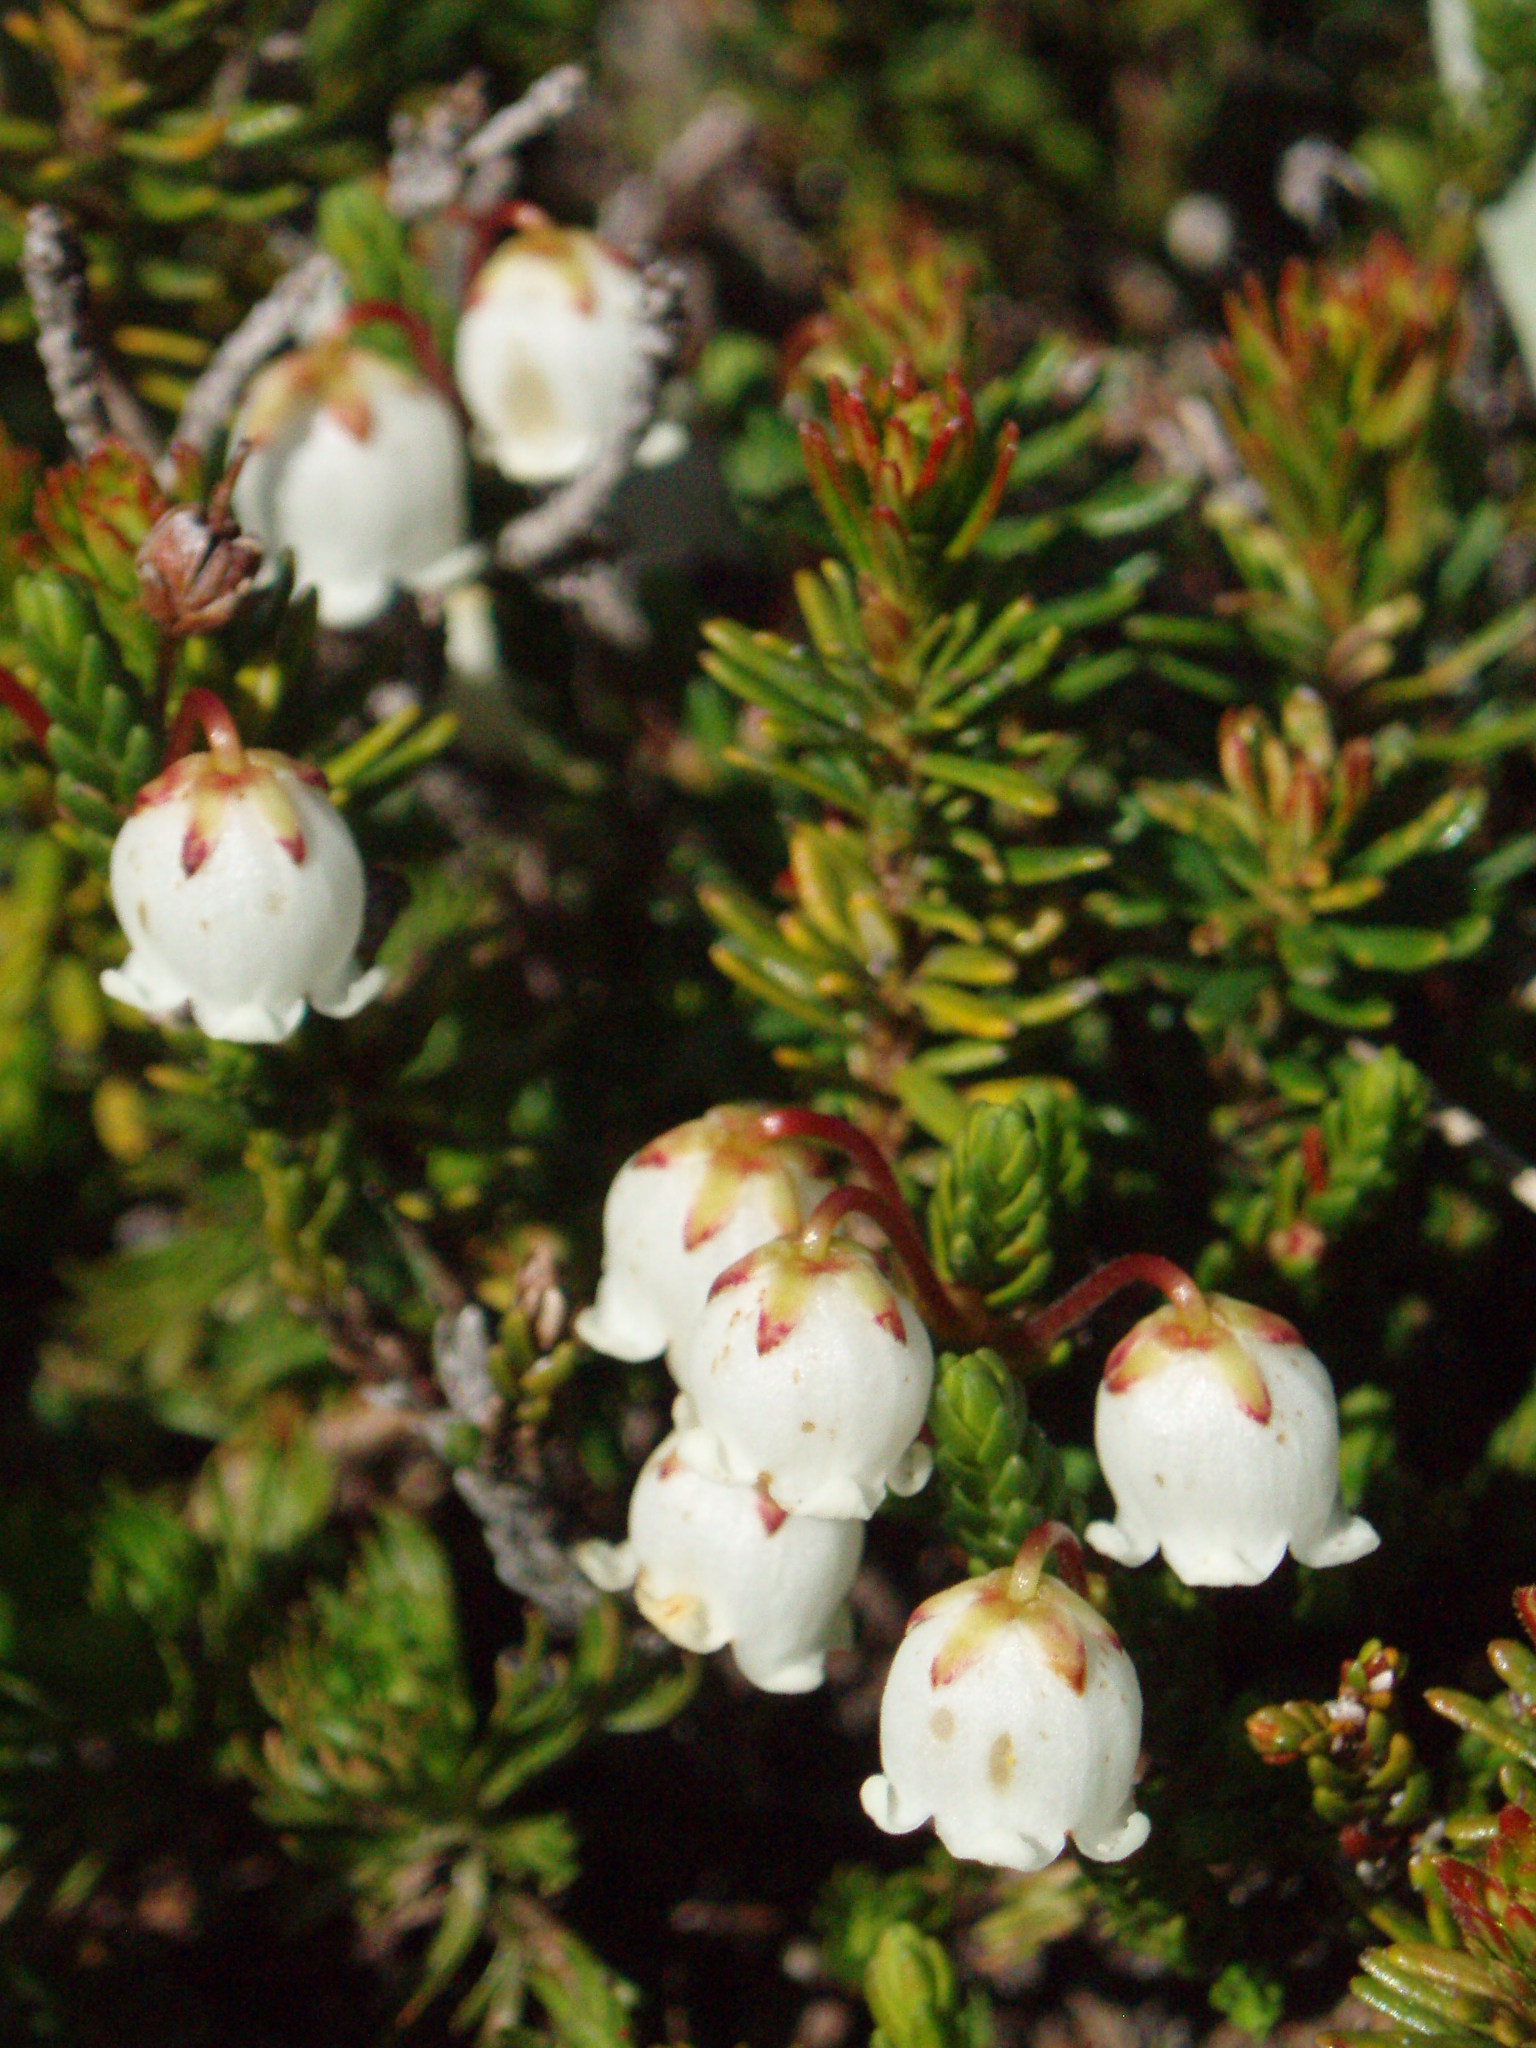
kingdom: Plantae
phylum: Tracheophyta
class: Magnoliopsida
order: Ericales
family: Ericaceae
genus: Cassiope
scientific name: Cassiope mertensiana
